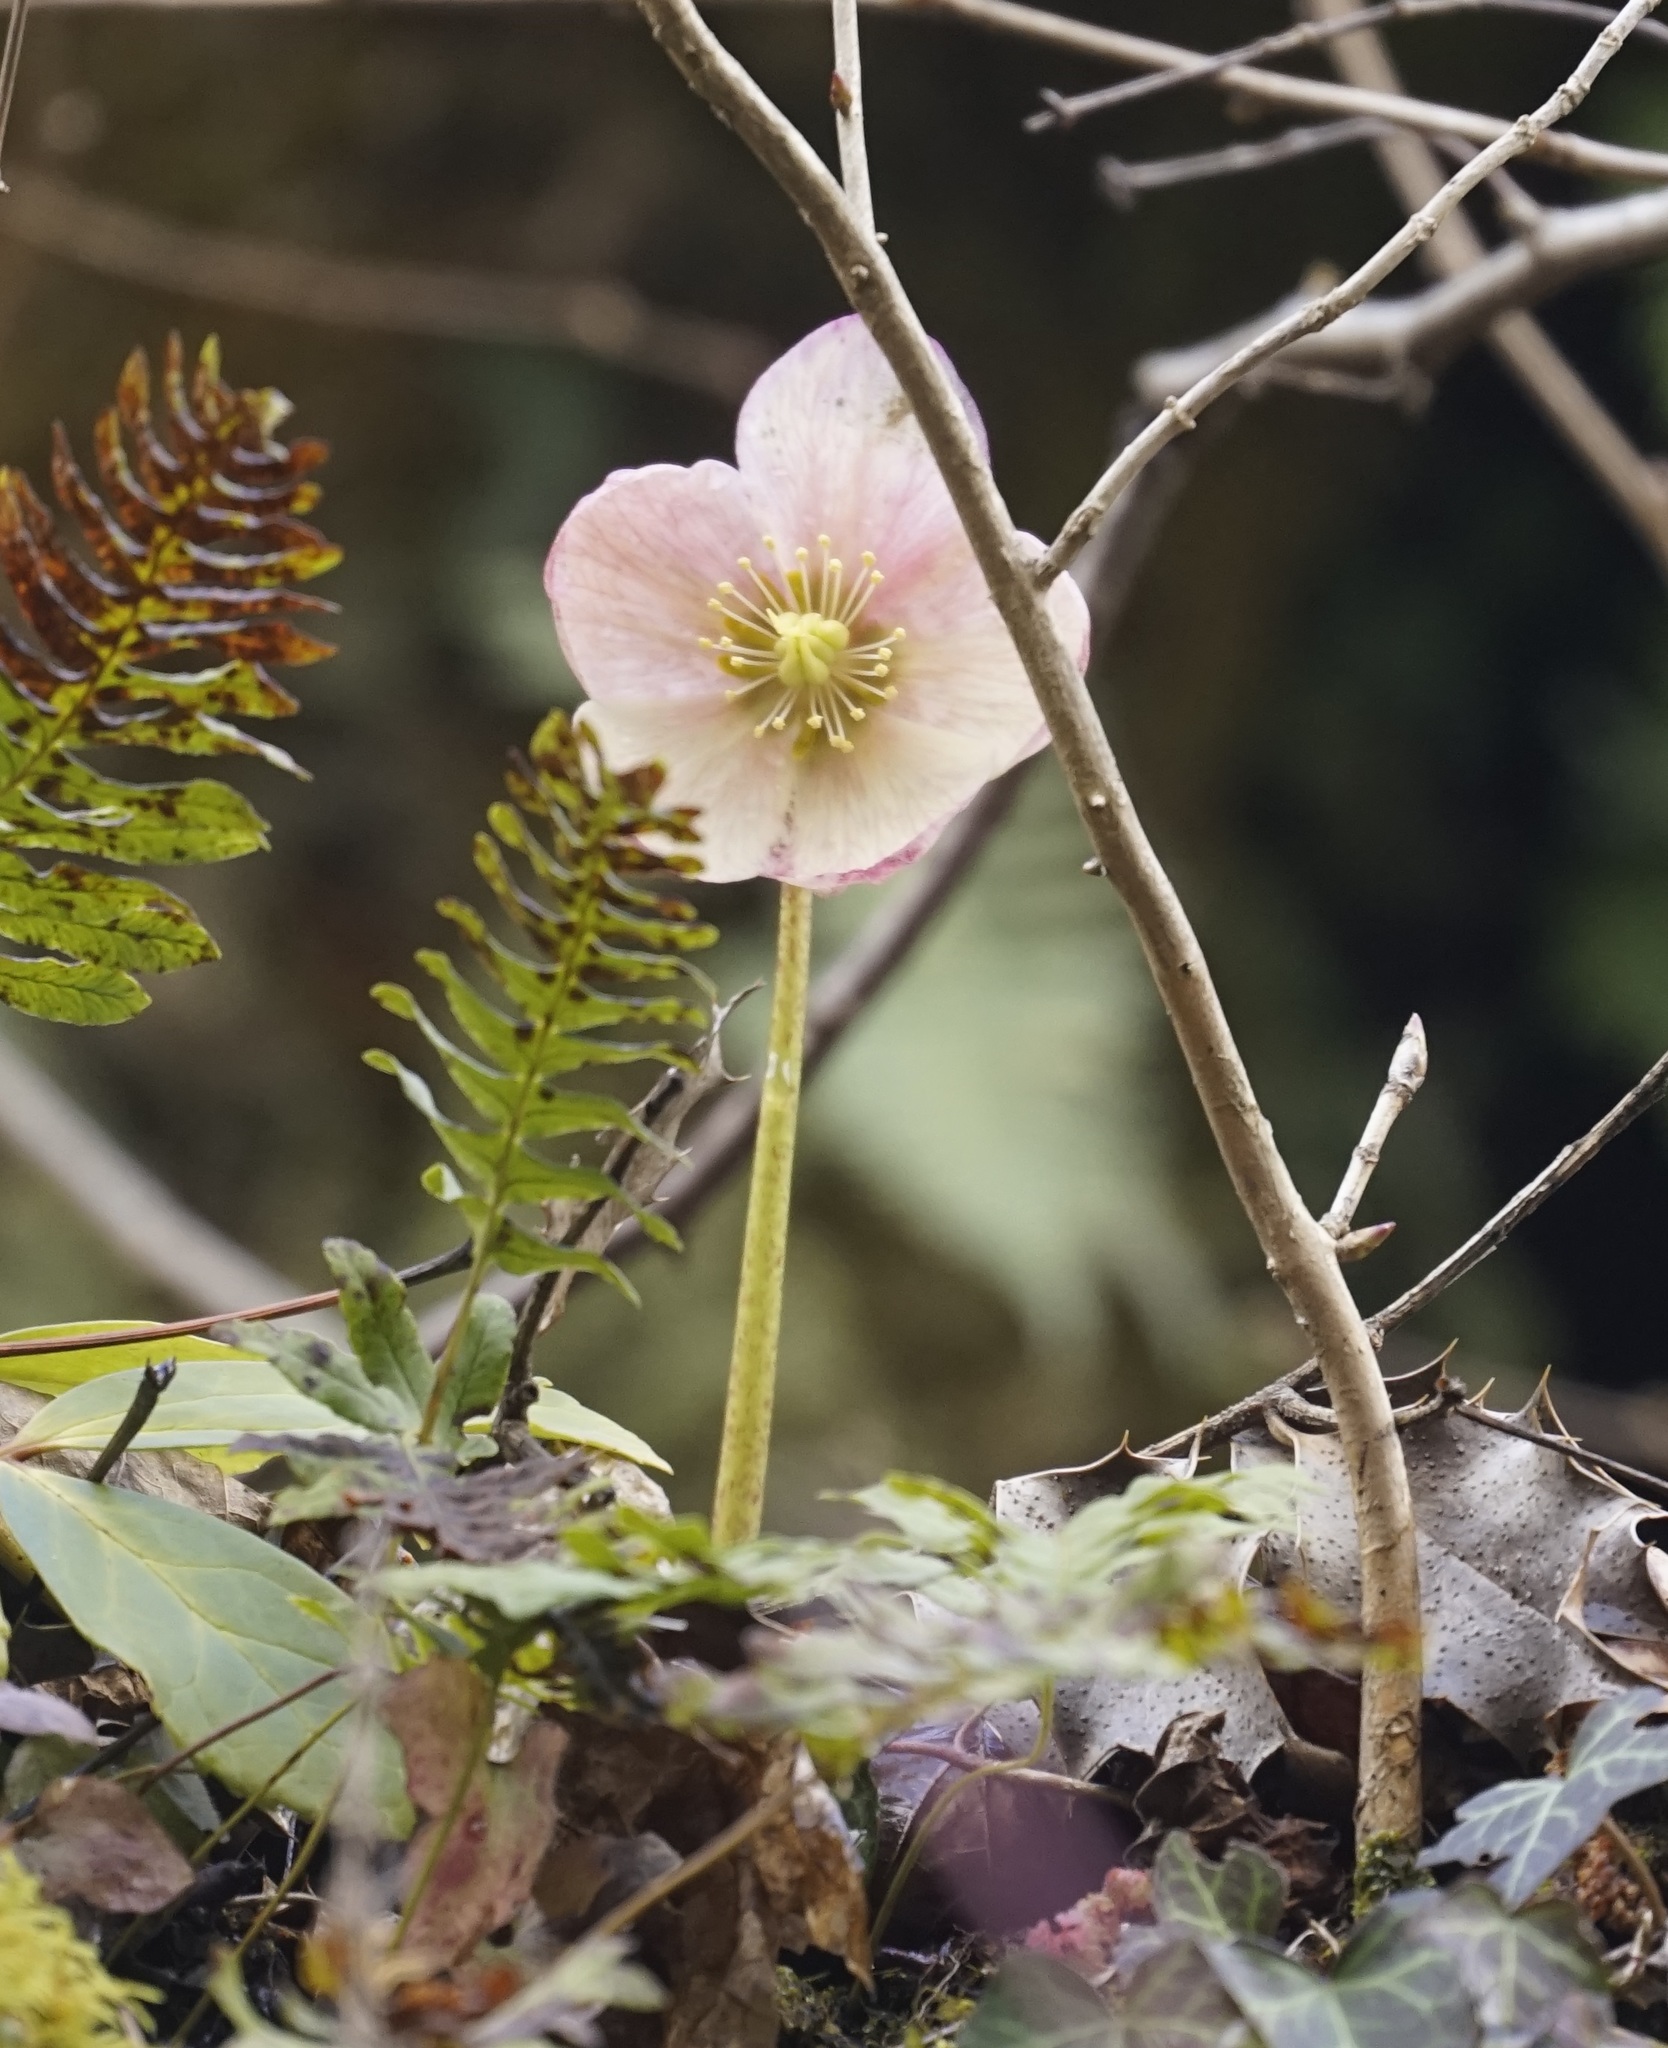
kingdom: Plantae
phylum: Tracheophyta
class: Magnoliopsida
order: Ranunculales
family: Ranunculaceae
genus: Helleborus
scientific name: Helleborus niger
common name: Black hellebore
